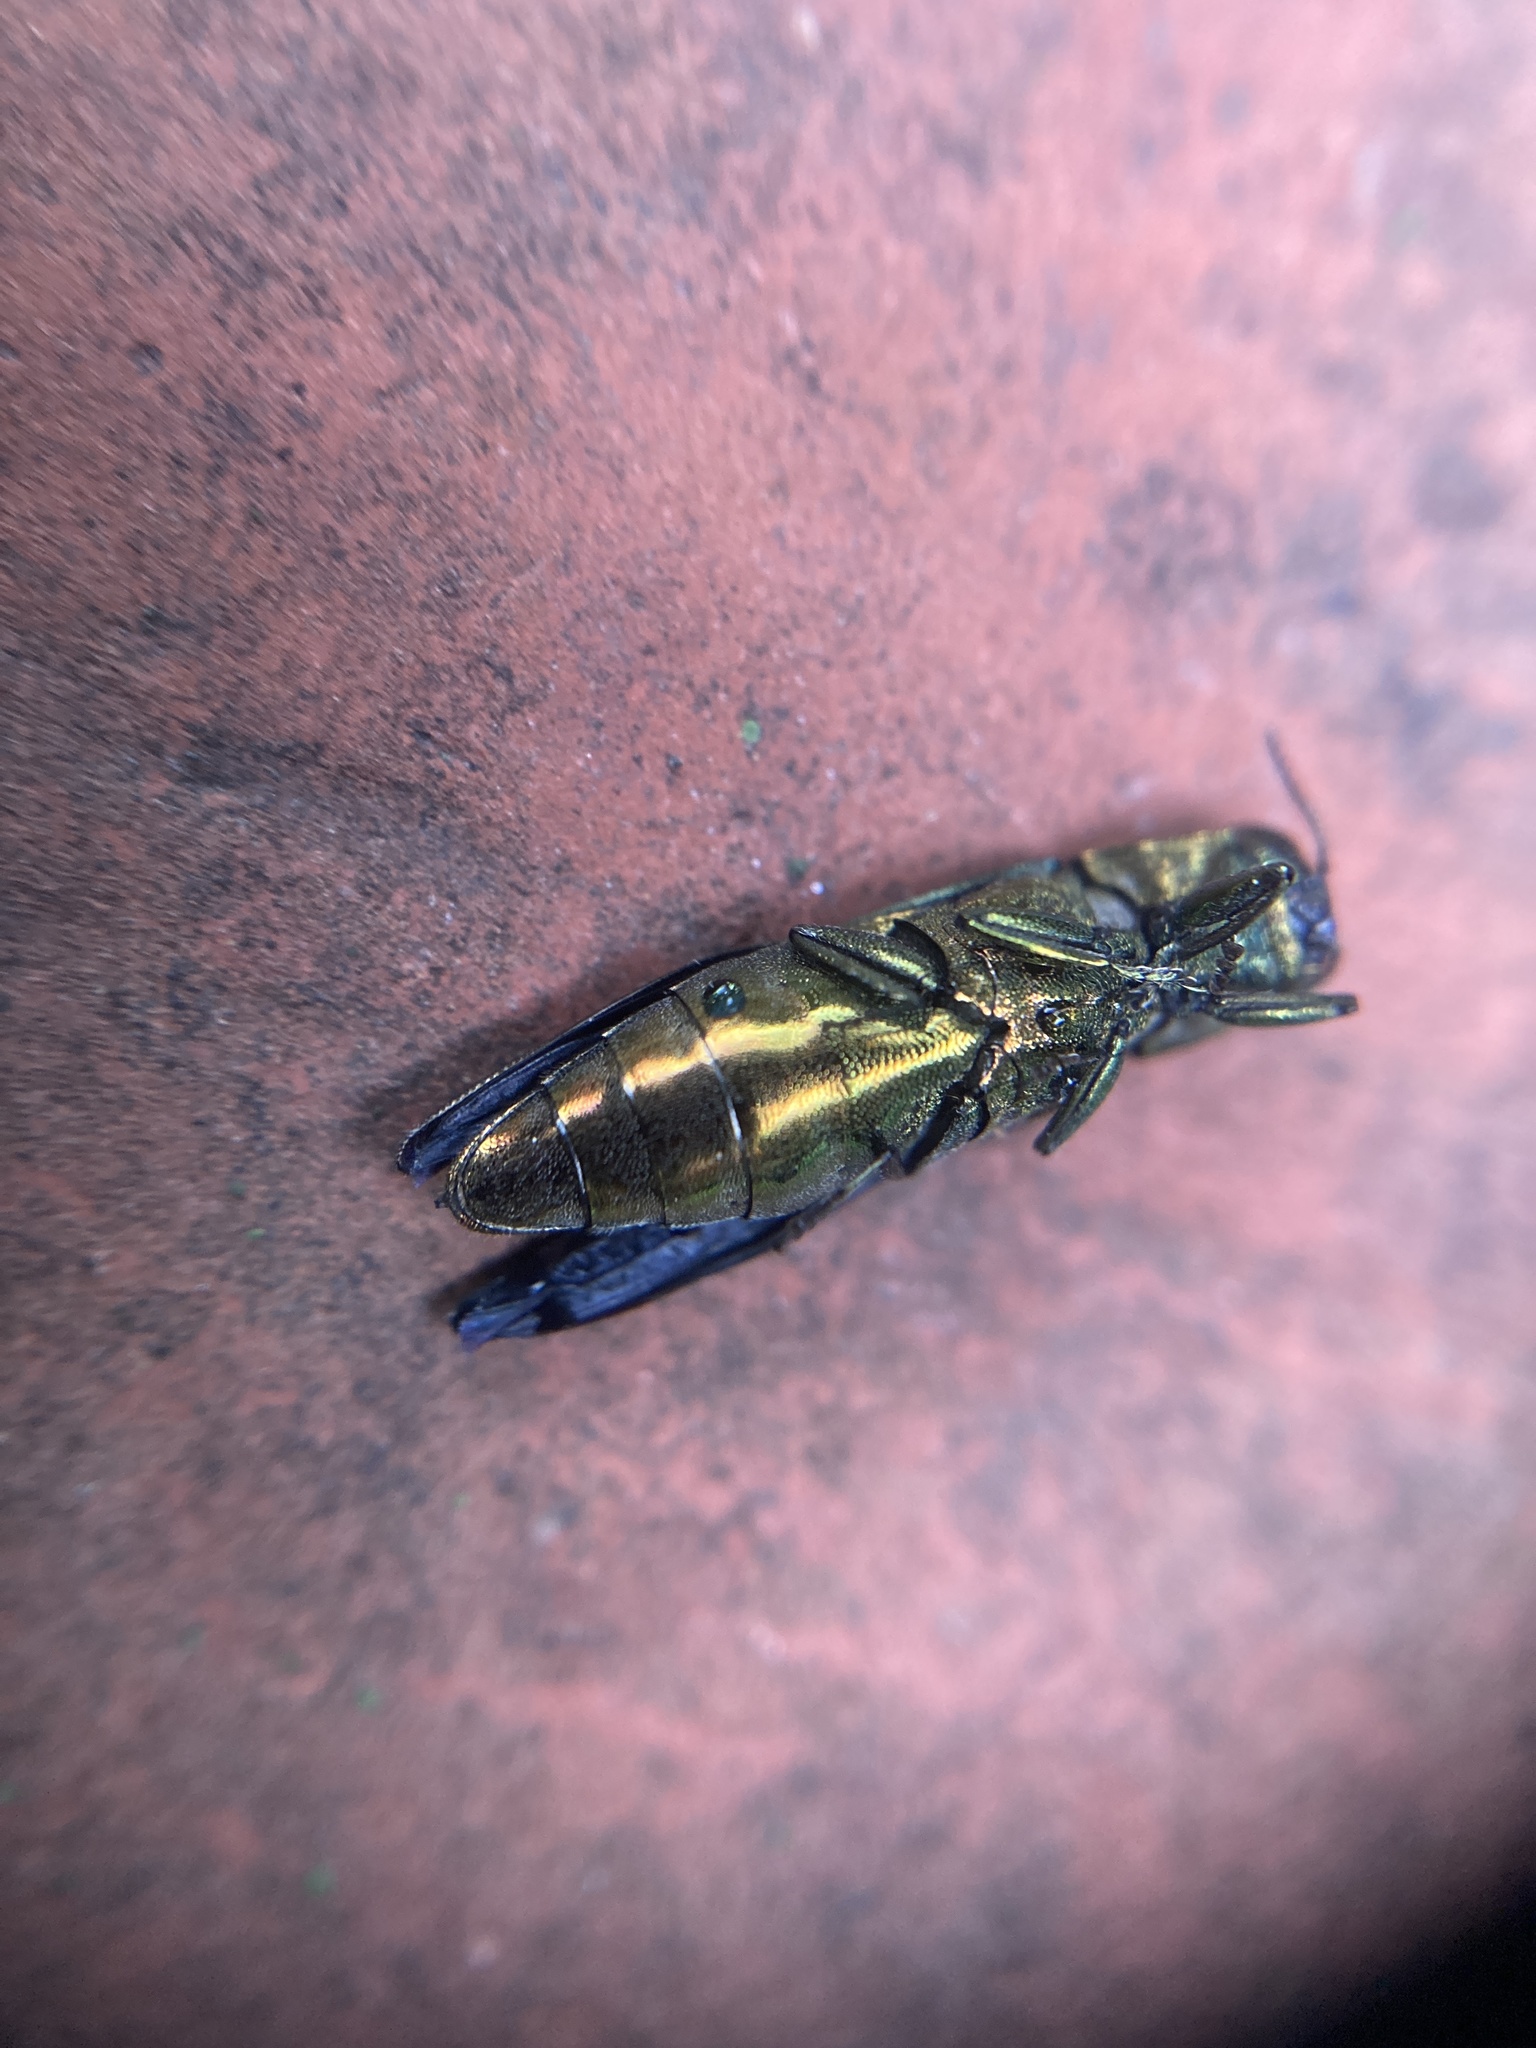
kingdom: Animalia
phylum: Arthropoda
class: Insecta
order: Coleoptera
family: Buprestidae
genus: Agrilus
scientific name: Agrilus planipennis
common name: Emerald ash borer
